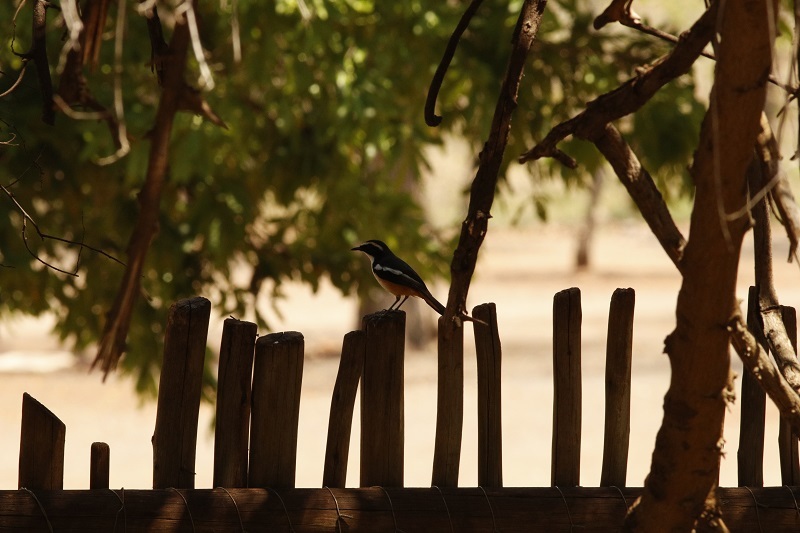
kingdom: Animalia
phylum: Chordata
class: Aves
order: Passeriformes
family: Muscicapidae
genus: Cossypha
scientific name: Cossypha humeralis
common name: White-throated robin-chat
